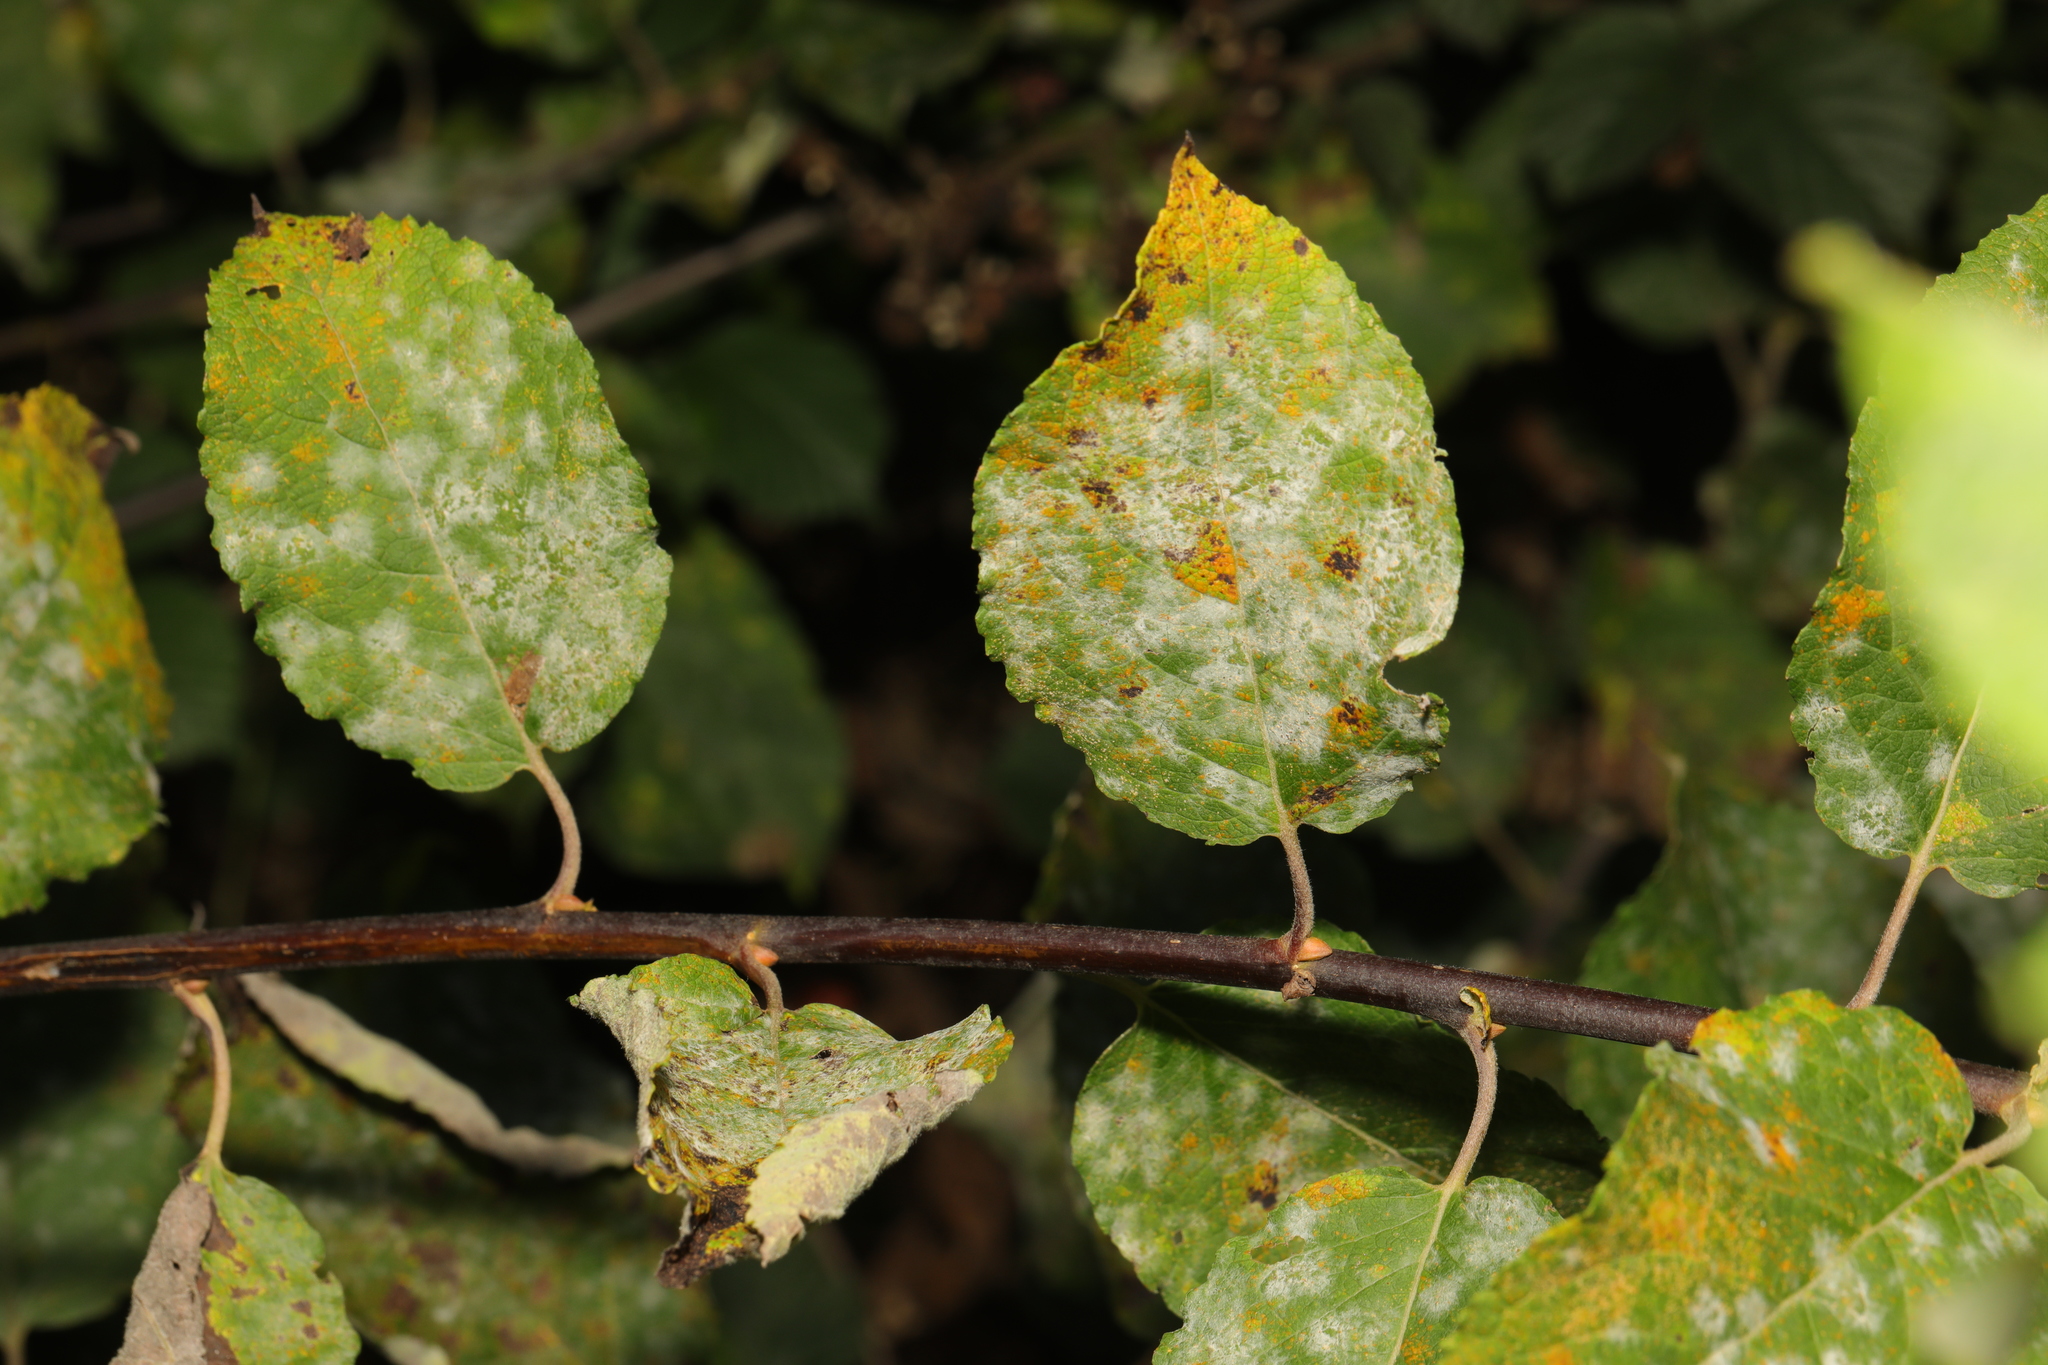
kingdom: Plantae
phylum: Tracheophyta
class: Magnoliopsida
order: Malpighiales
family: Salicaceae
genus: Salix
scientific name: Salix caprea
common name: Goat willow
